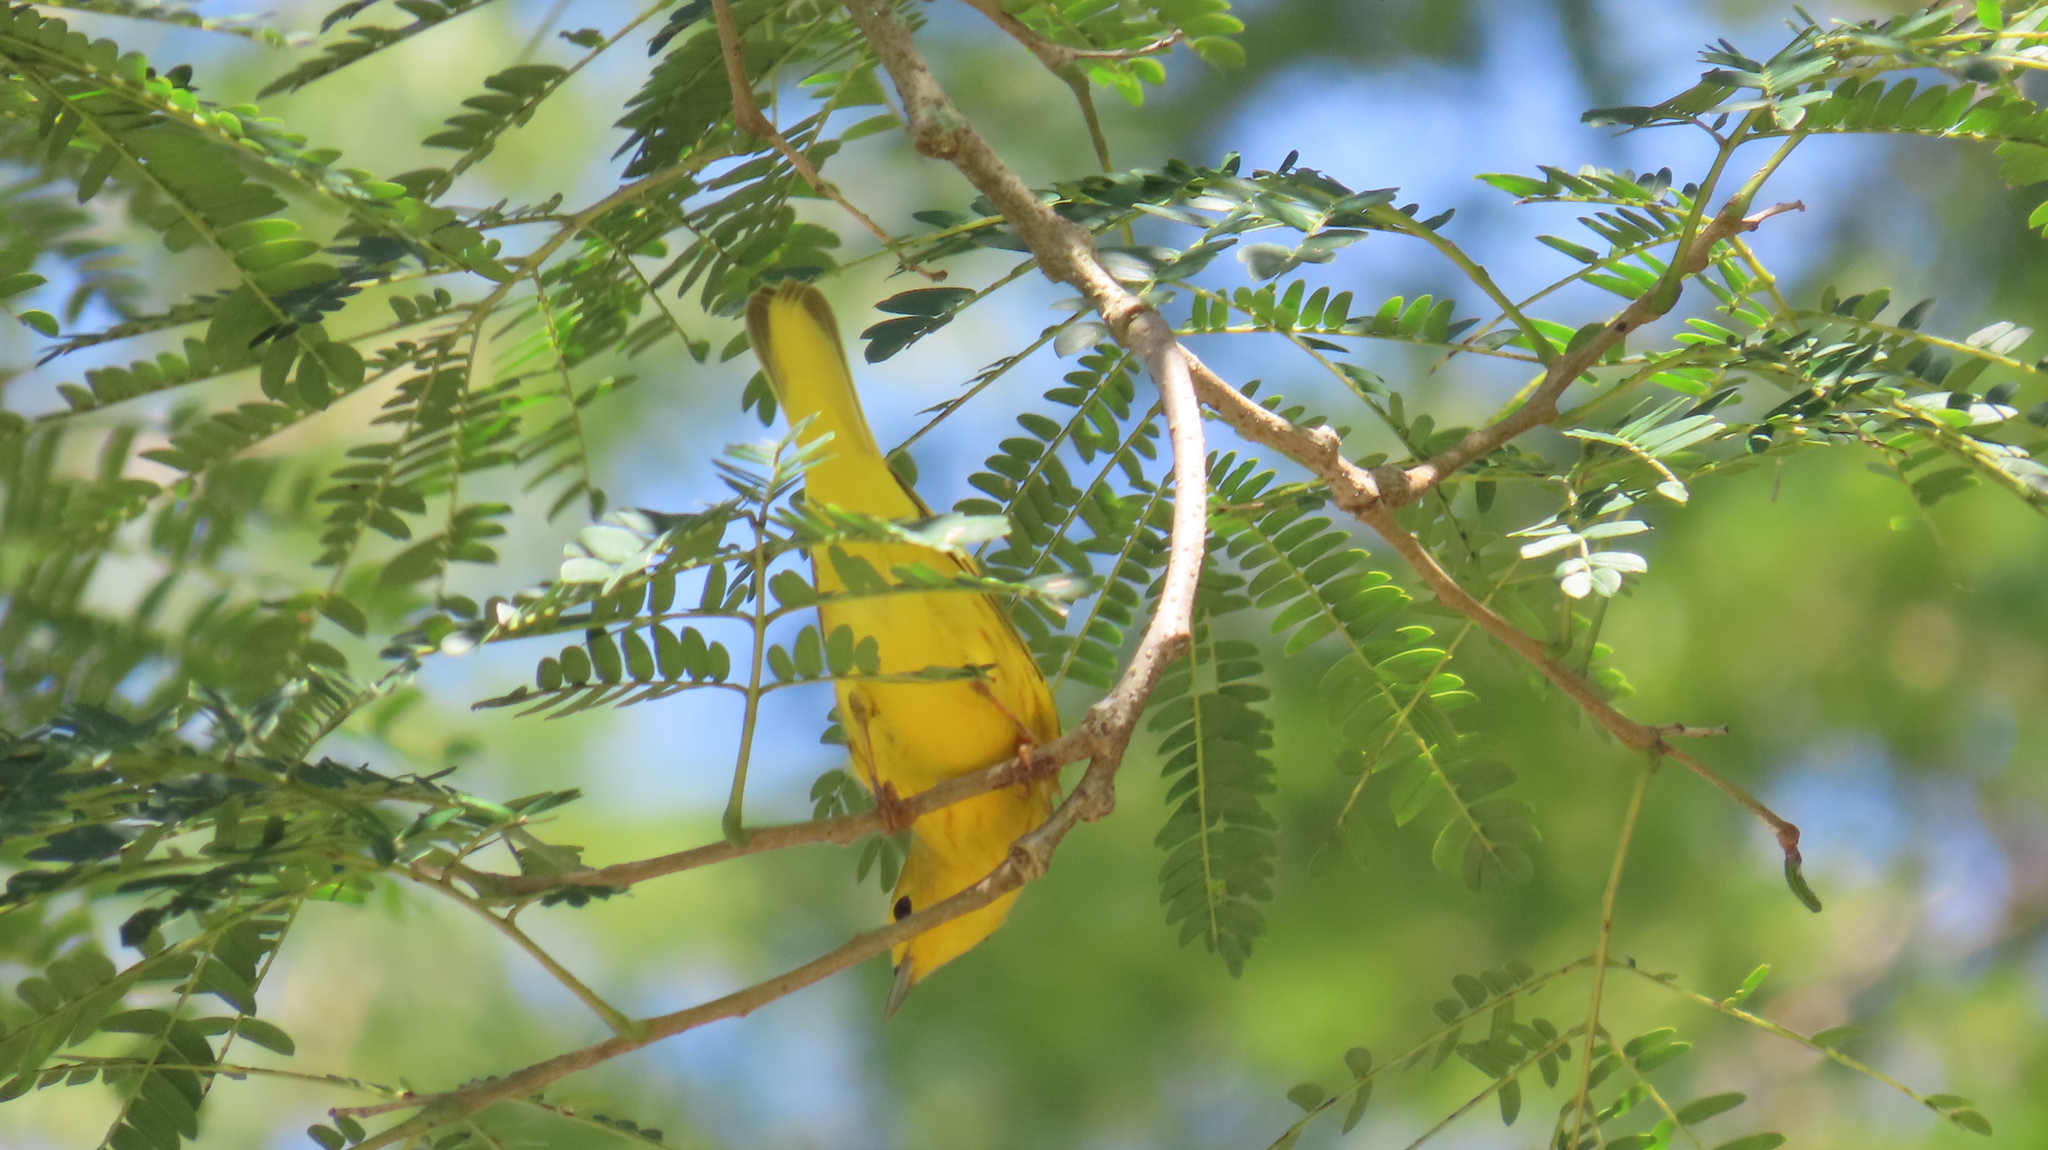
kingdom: Animalia
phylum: Chordata
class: Aves
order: Passeriformes
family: Parulidae
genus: Setophaga
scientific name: Setophaga petechia
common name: Yellow warbler
